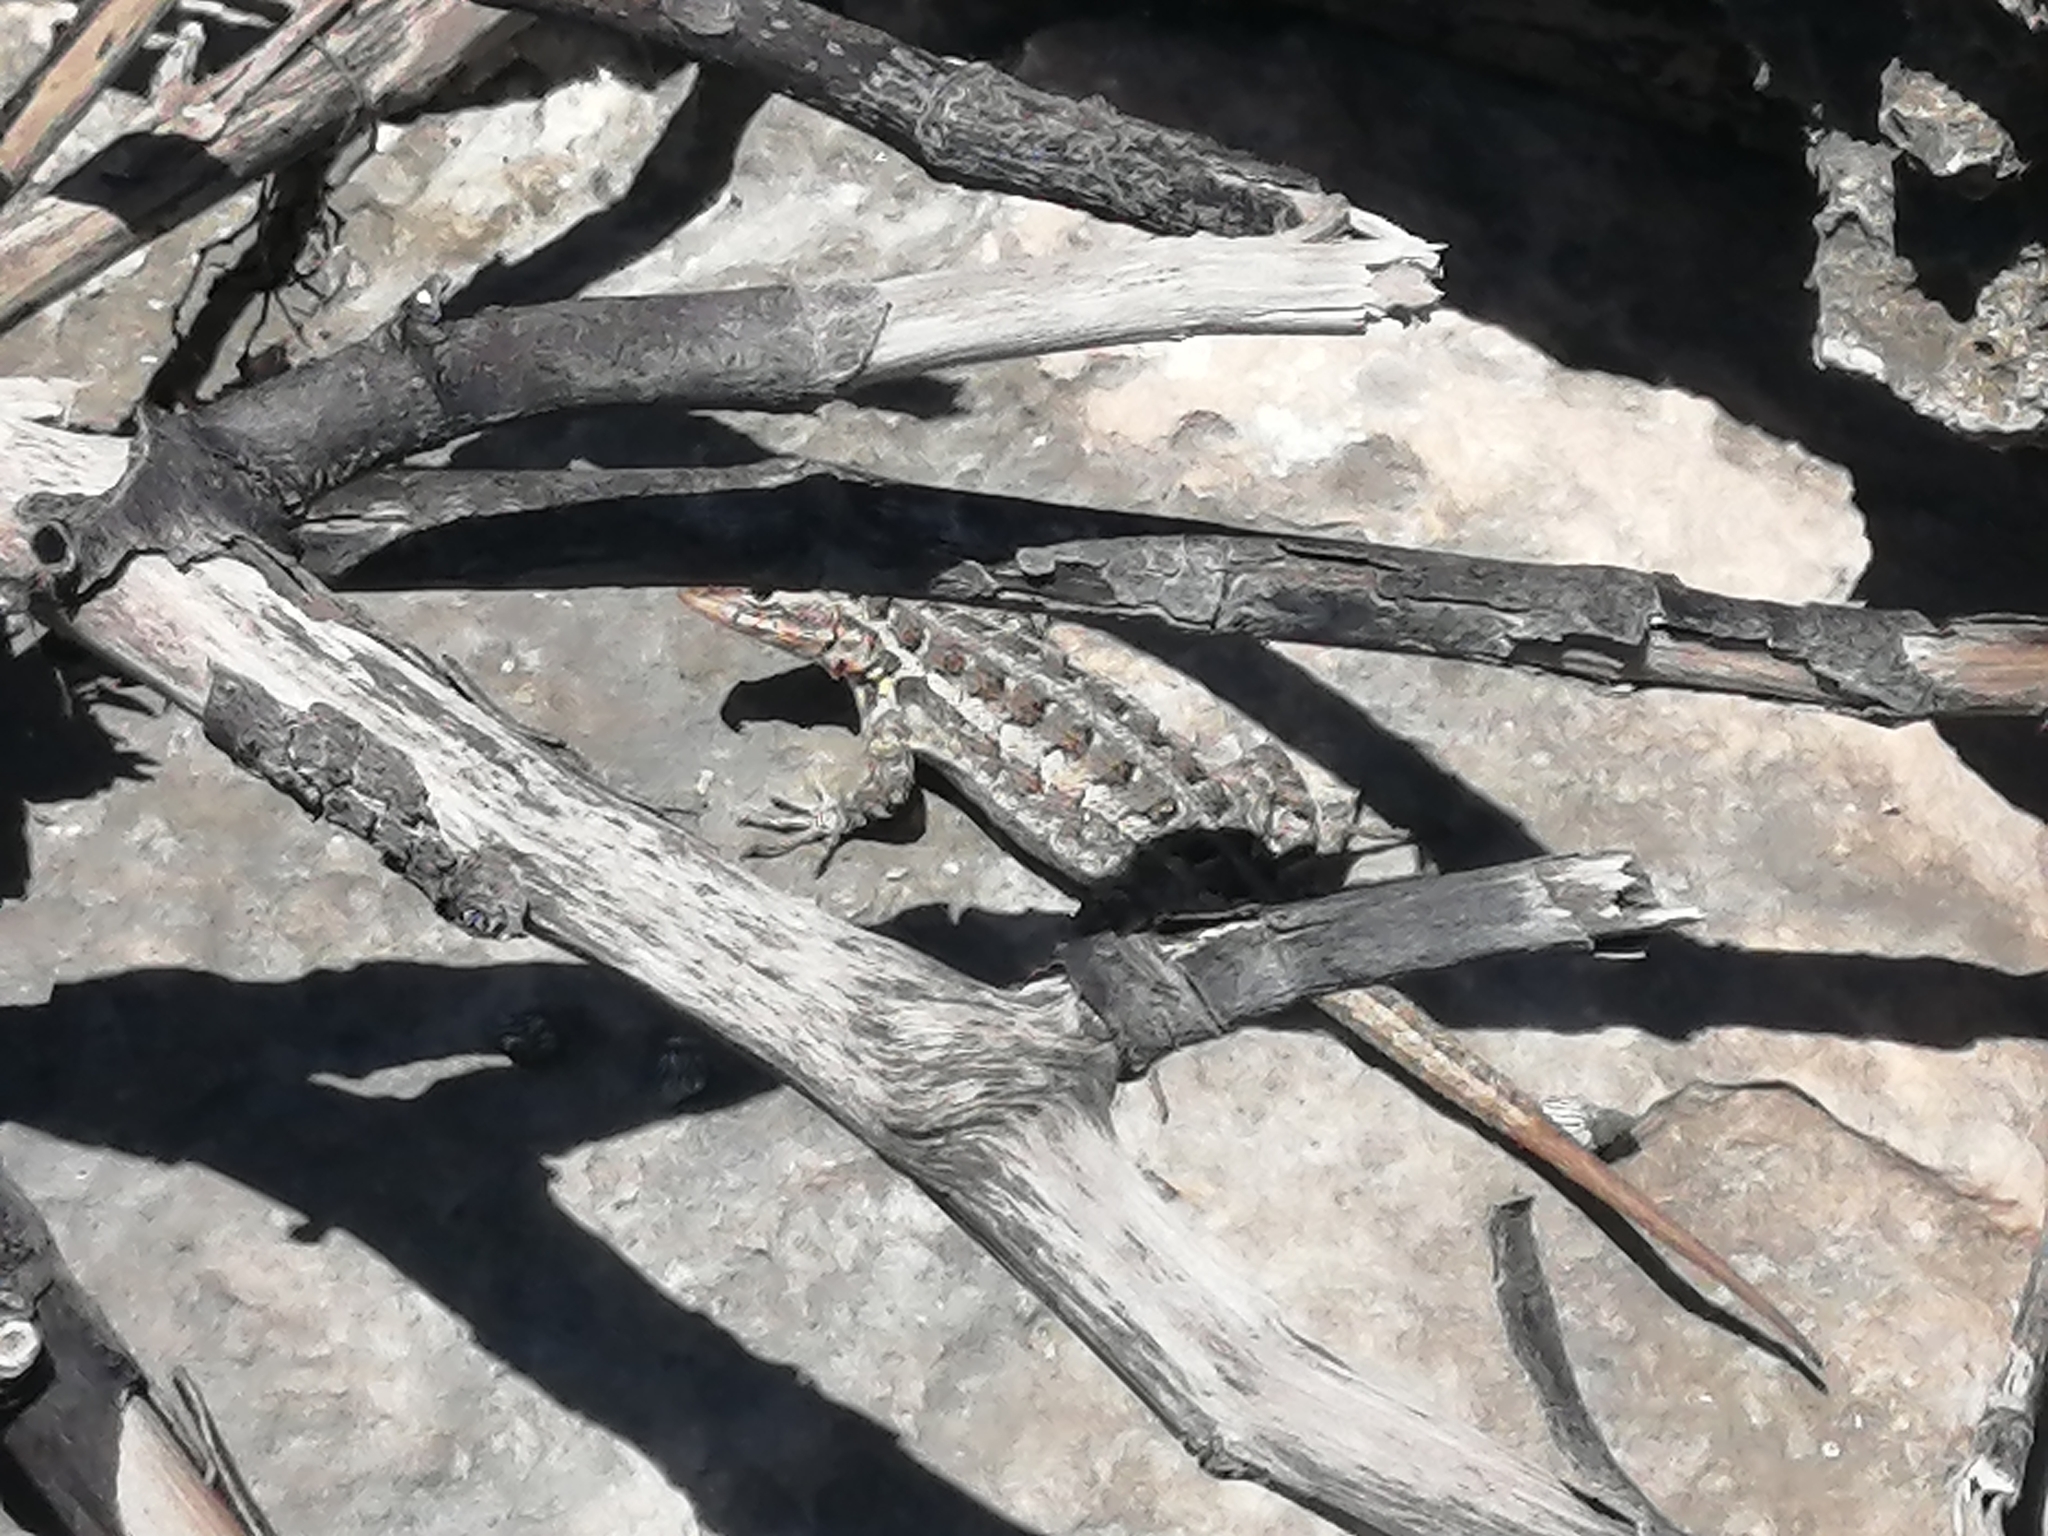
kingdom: Animalia
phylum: Chordata
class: Squamata
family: Phrynosomatidae
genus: Sceloporus
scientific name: Sceloporus cozumelae
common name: Cozumel spiny lizard
